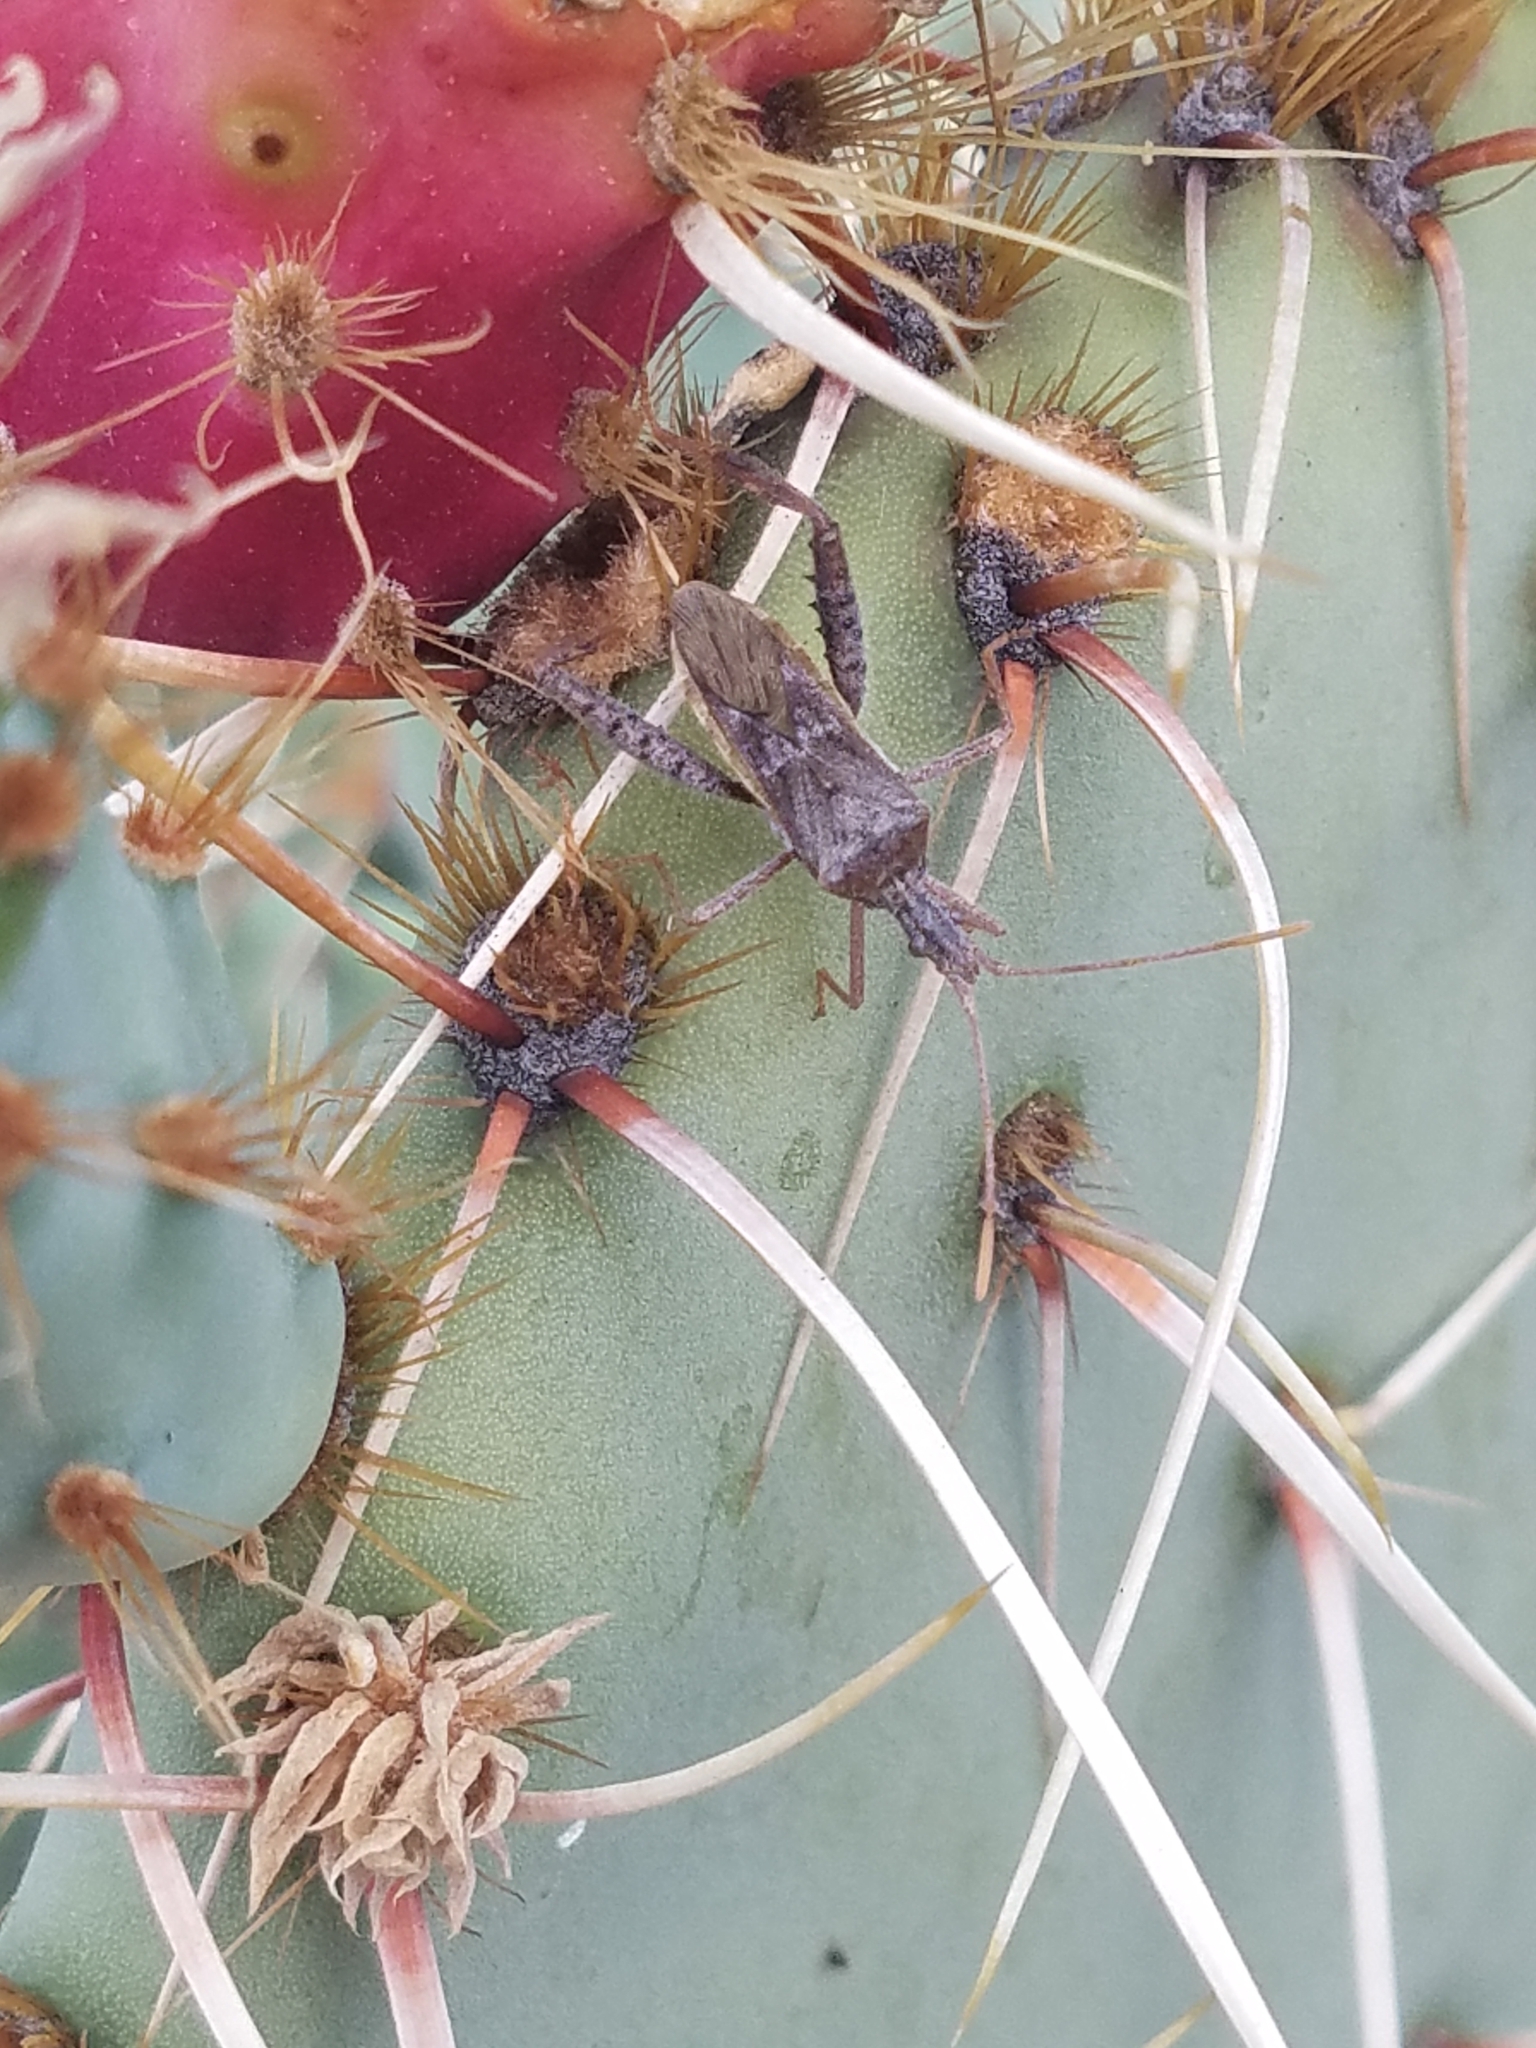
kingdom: Animalia
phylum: Arthropoda
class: Insecta
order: Hemiptera
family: Coreidae
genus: Narnia
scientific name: Narnia femorata
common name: Leaf-footed cactus bug
